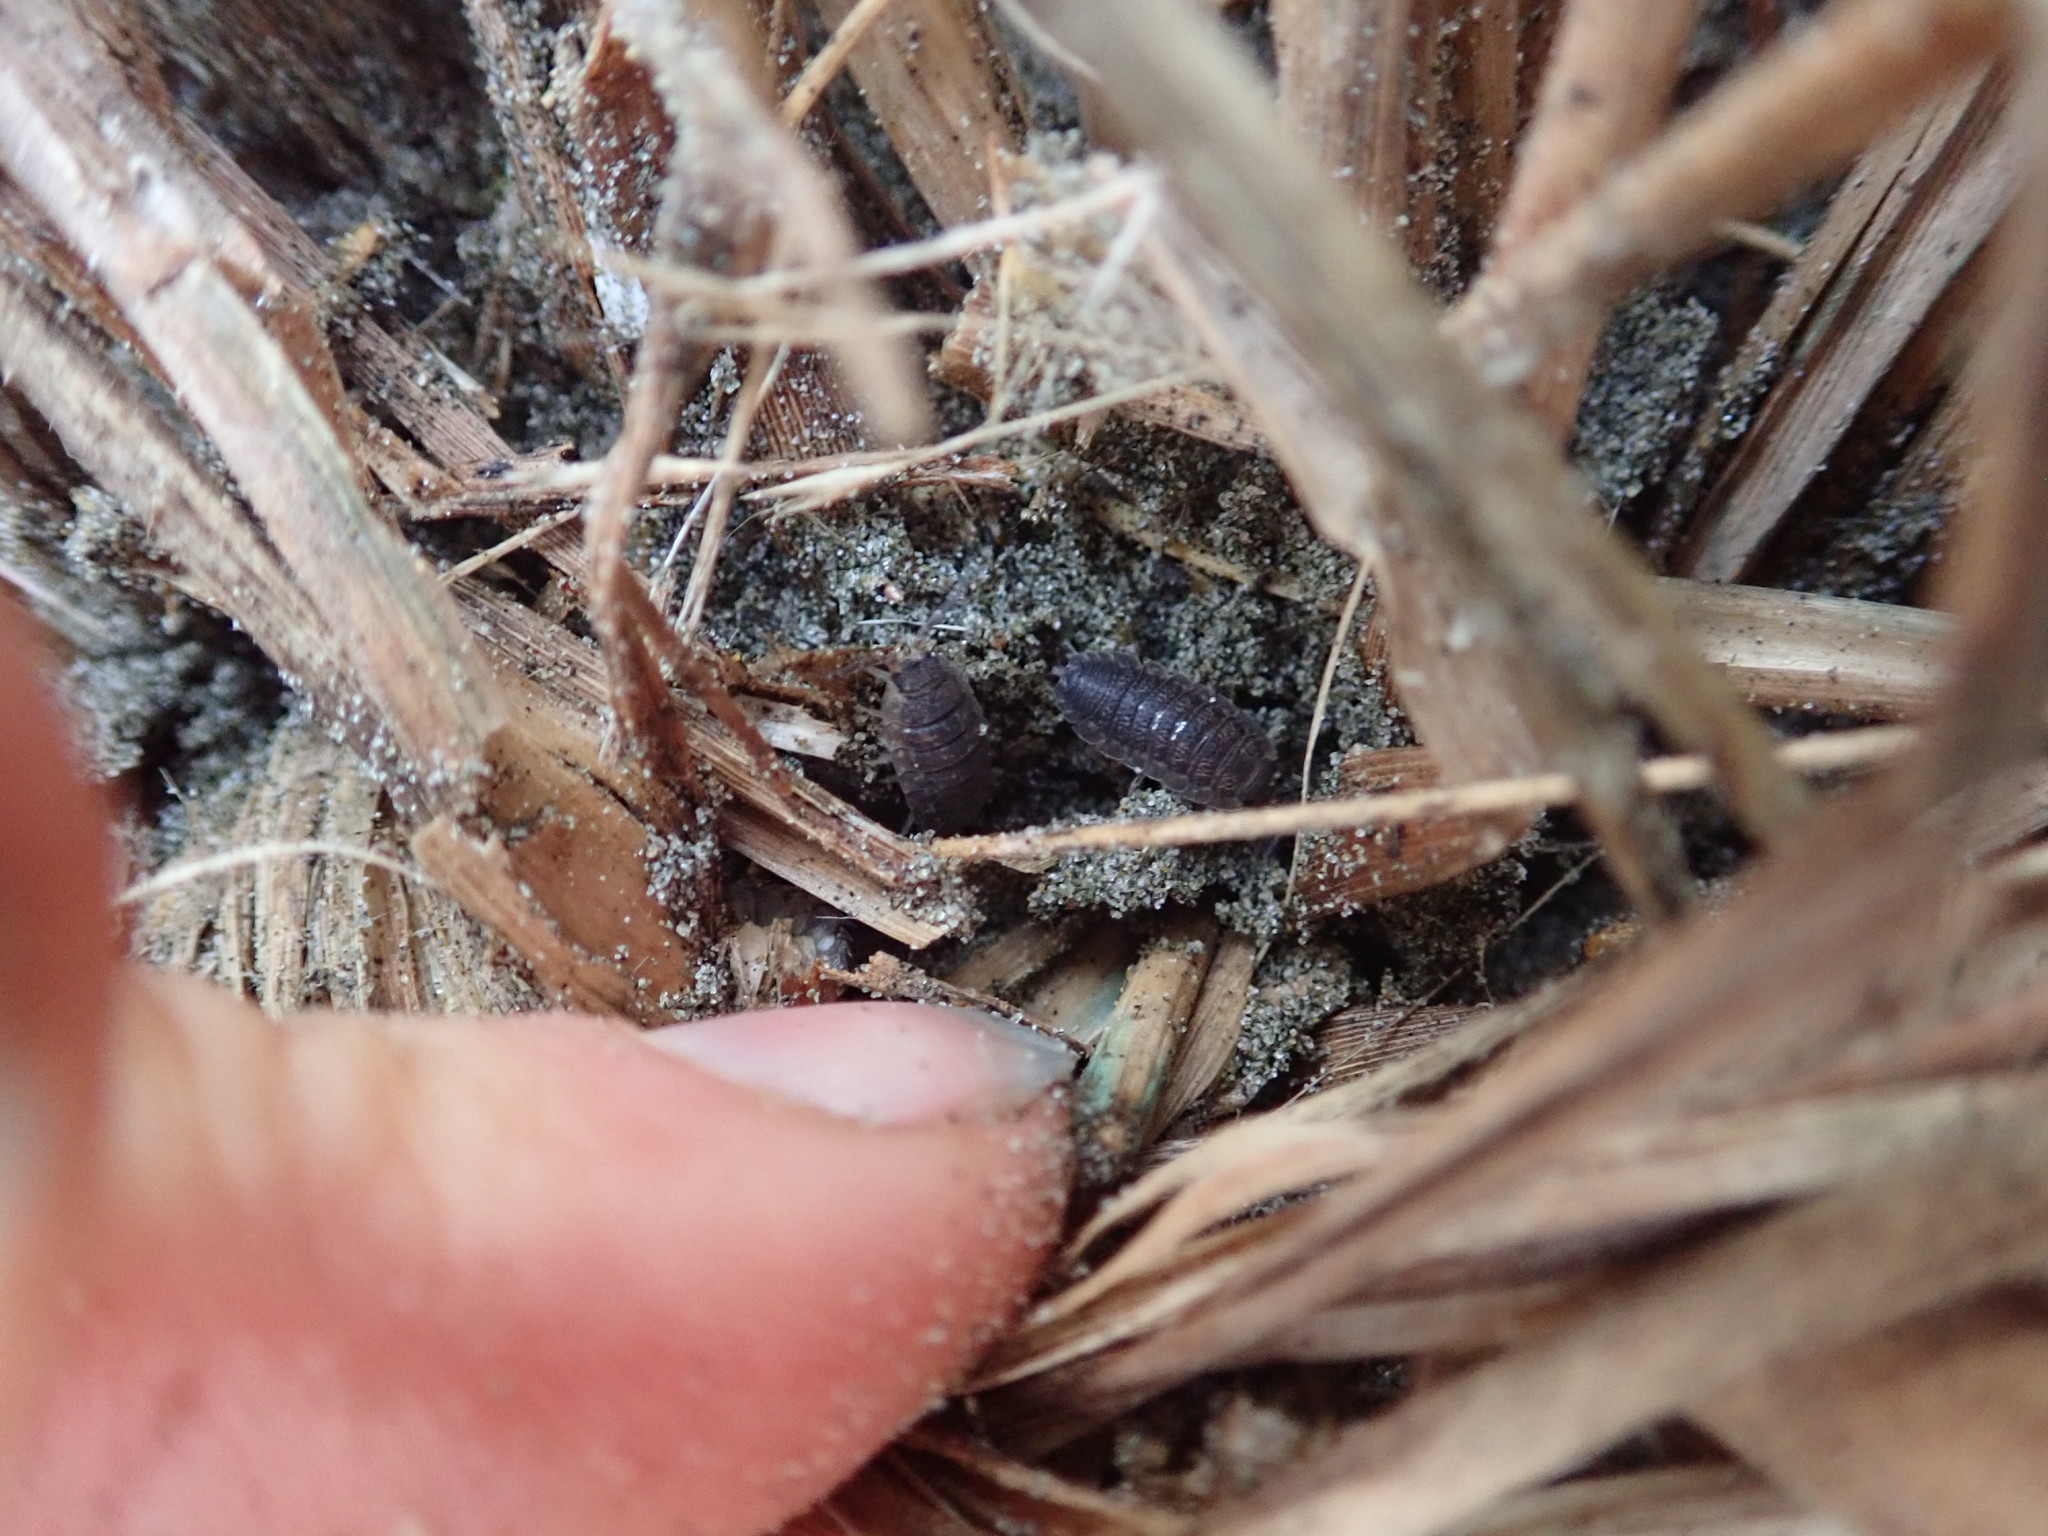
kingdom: Animalia
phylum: Arthropoda
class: Malacostraca
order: Isopoda
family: Porcellionidae
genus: Porcellio
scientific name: Porcellio scaber
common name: Common rough woodlouse
